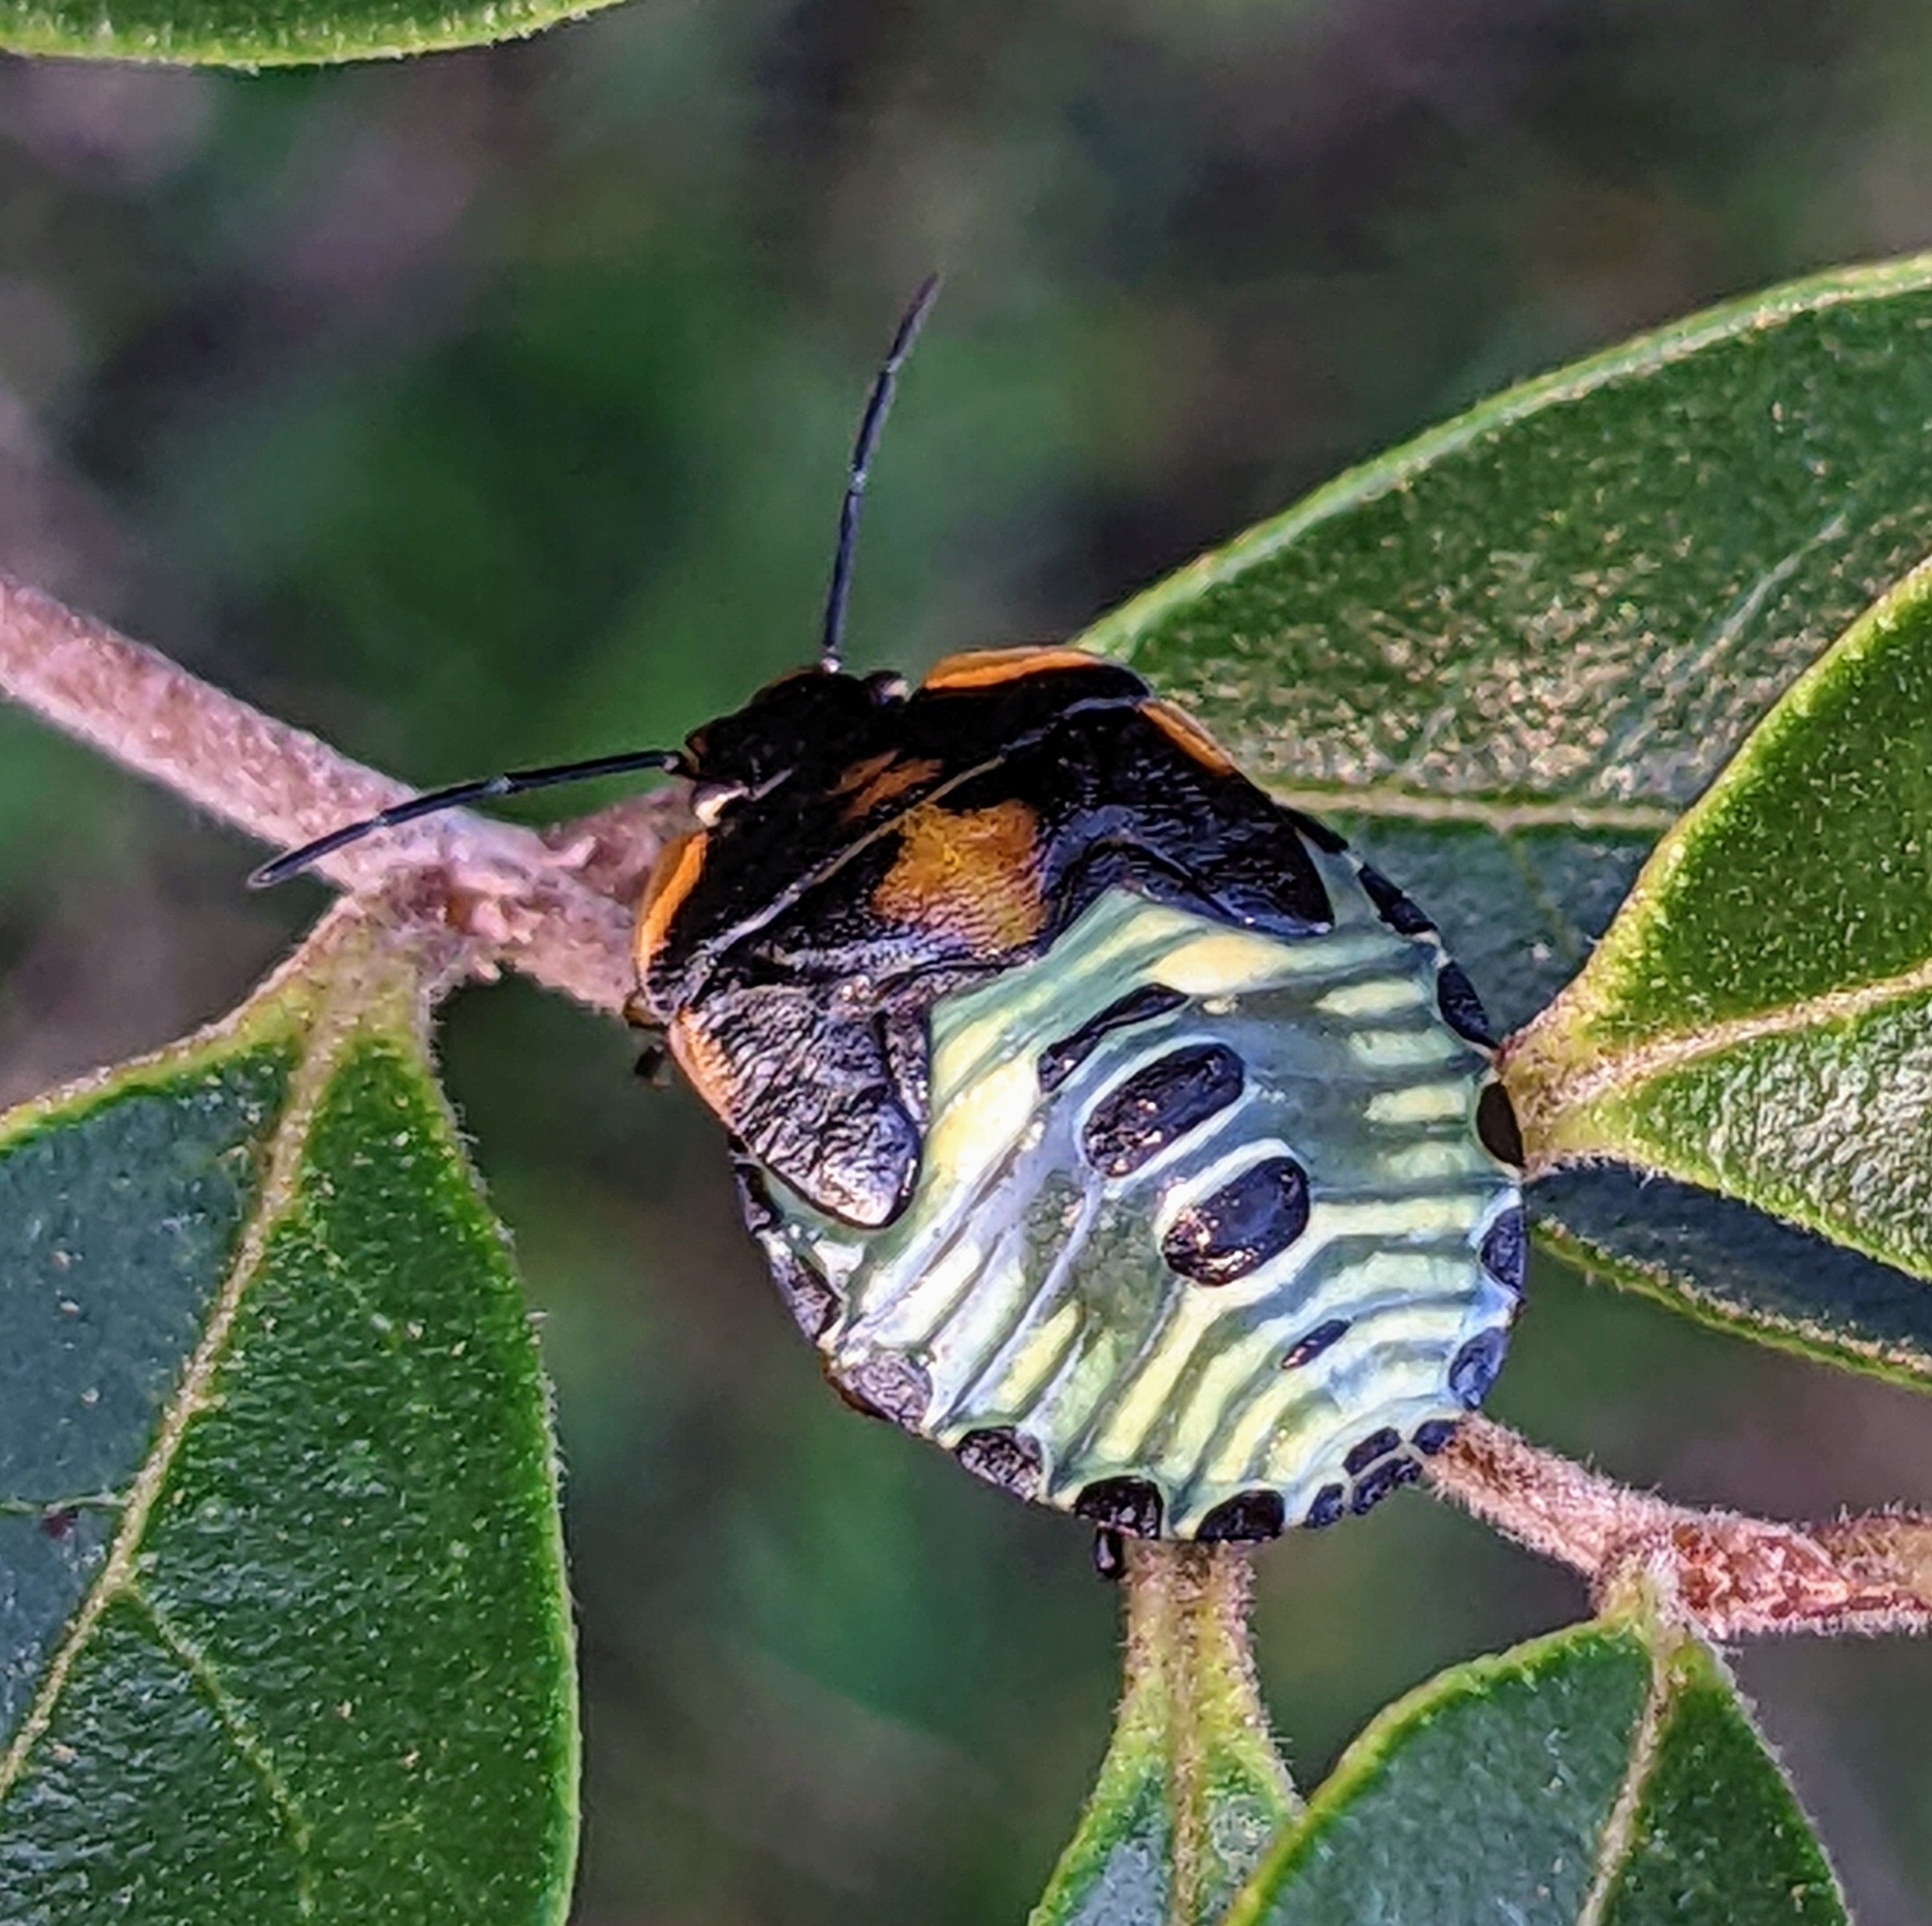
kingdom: Animalia
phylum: Arthropoda
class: Insecta
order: Hemiptera
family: Pentatomidae
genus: Chinavia
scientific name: Chinavia hilaris
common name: Green stink bug
